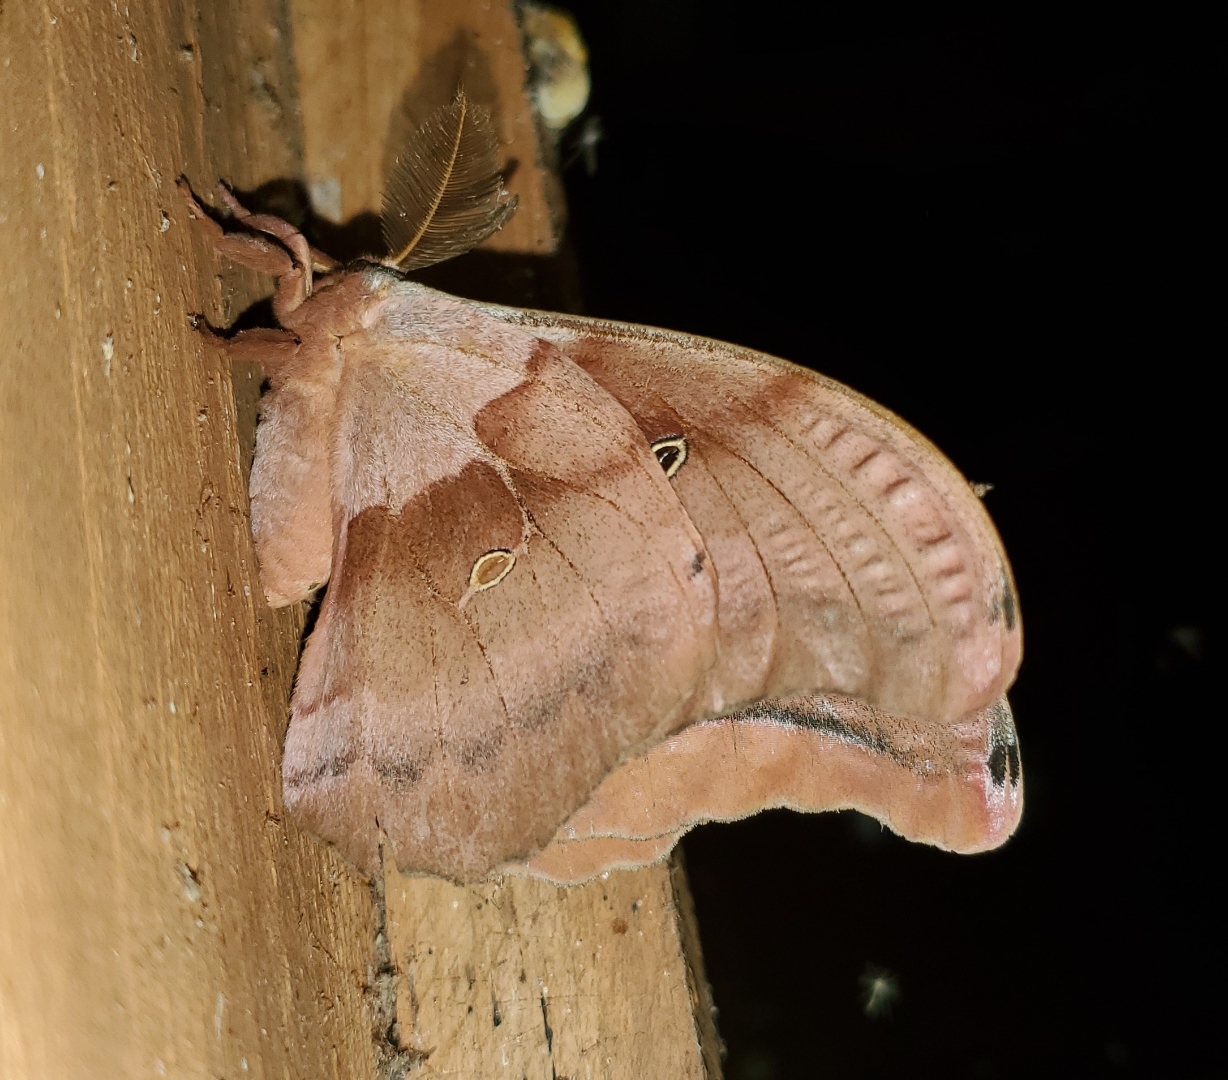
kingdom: Animalia
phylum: Arthropoda
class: Insecta
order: Lepidoptera
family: Saturniidae
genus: Antheraea
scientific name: Antheraea polyphemus
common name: Polyphemus moth
